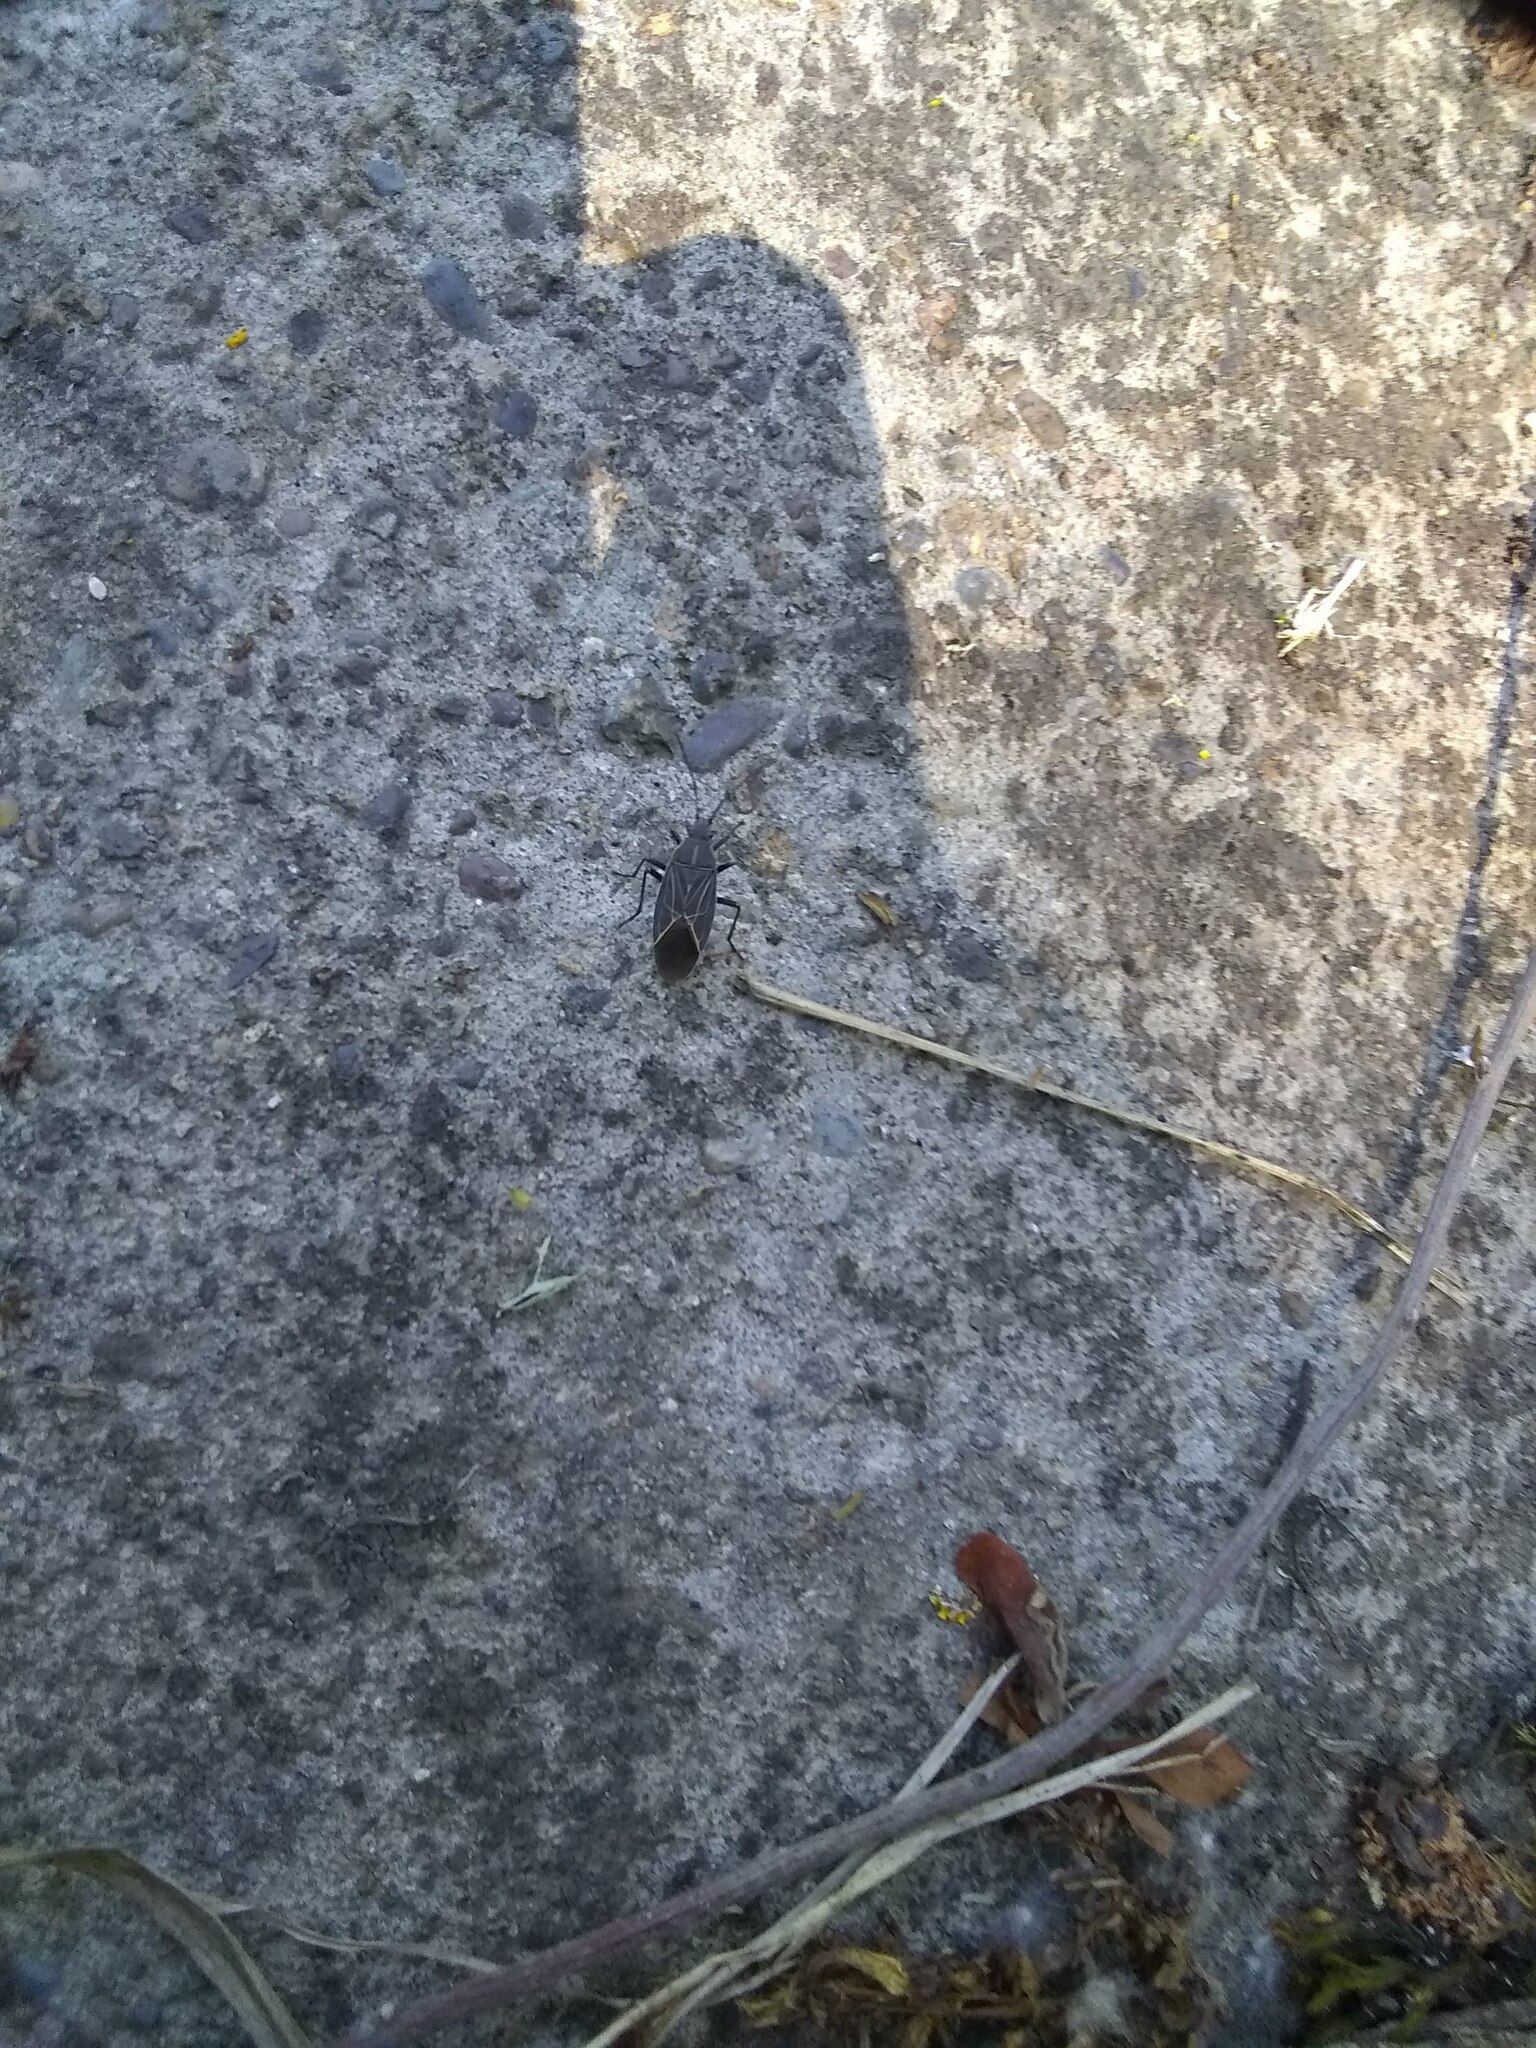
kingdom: Animalia
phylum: Arthropoda
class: Insecta
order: Hemiptera
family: Rhopalidae
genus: Boisea
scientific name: Boisea rubrolineata
